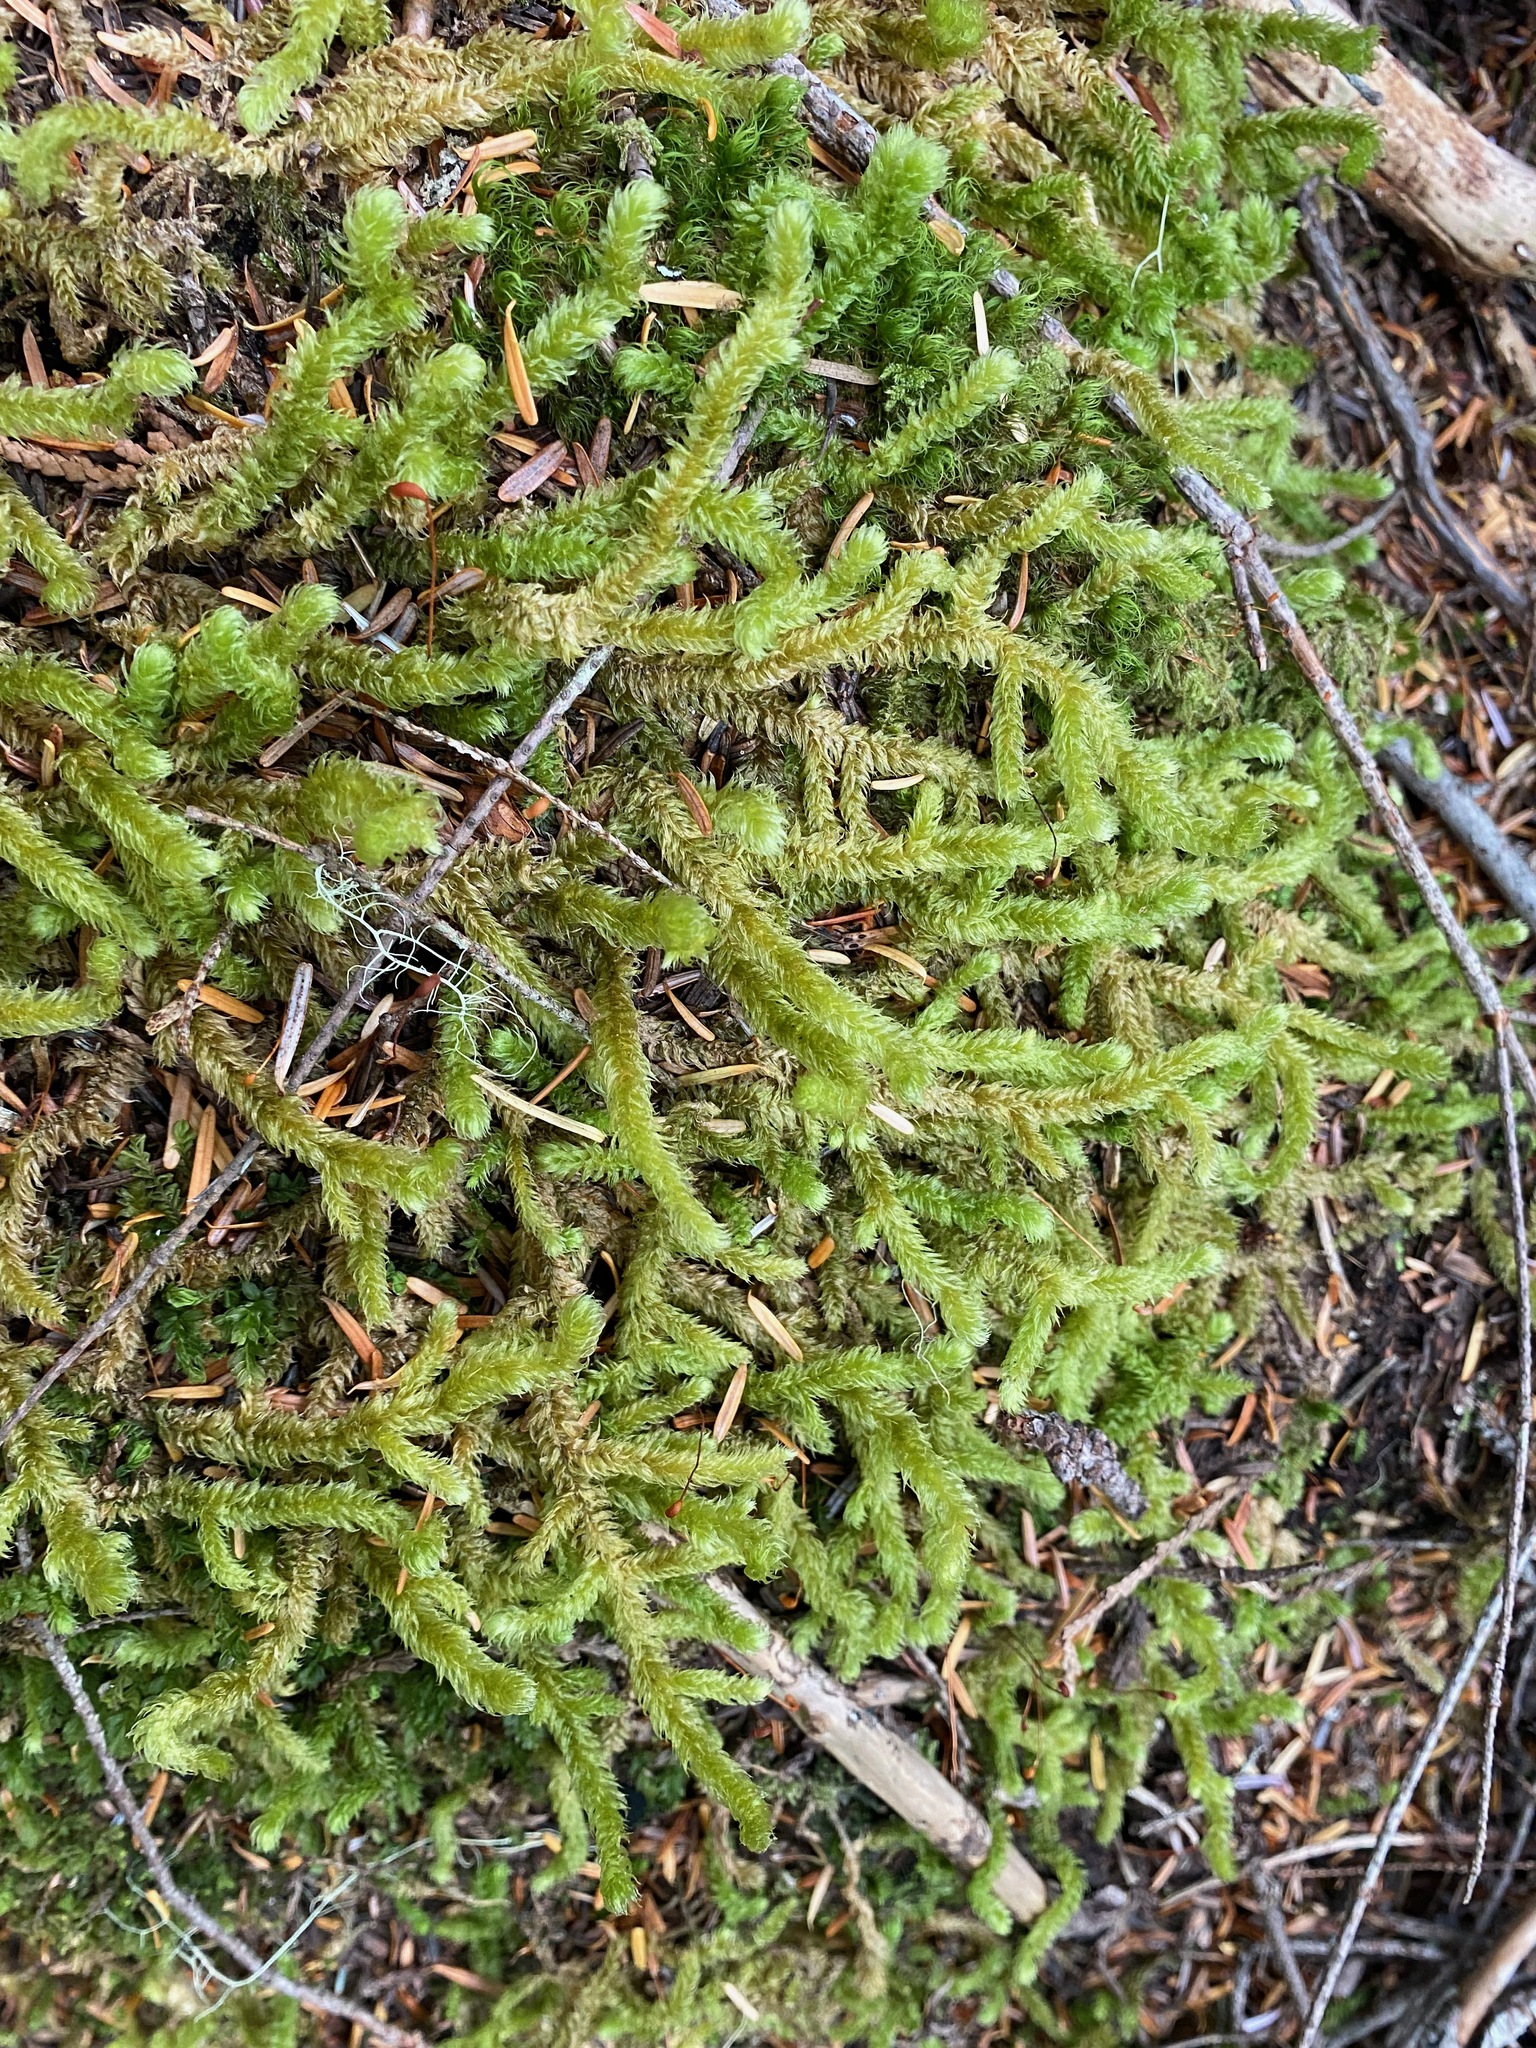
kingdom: Plantae
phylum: Bryophyta
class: Bryopsida
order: Hypnales
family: Hylocomiaceae
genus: Rhytidiopsis
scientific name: Rhytidiopsis robusta
